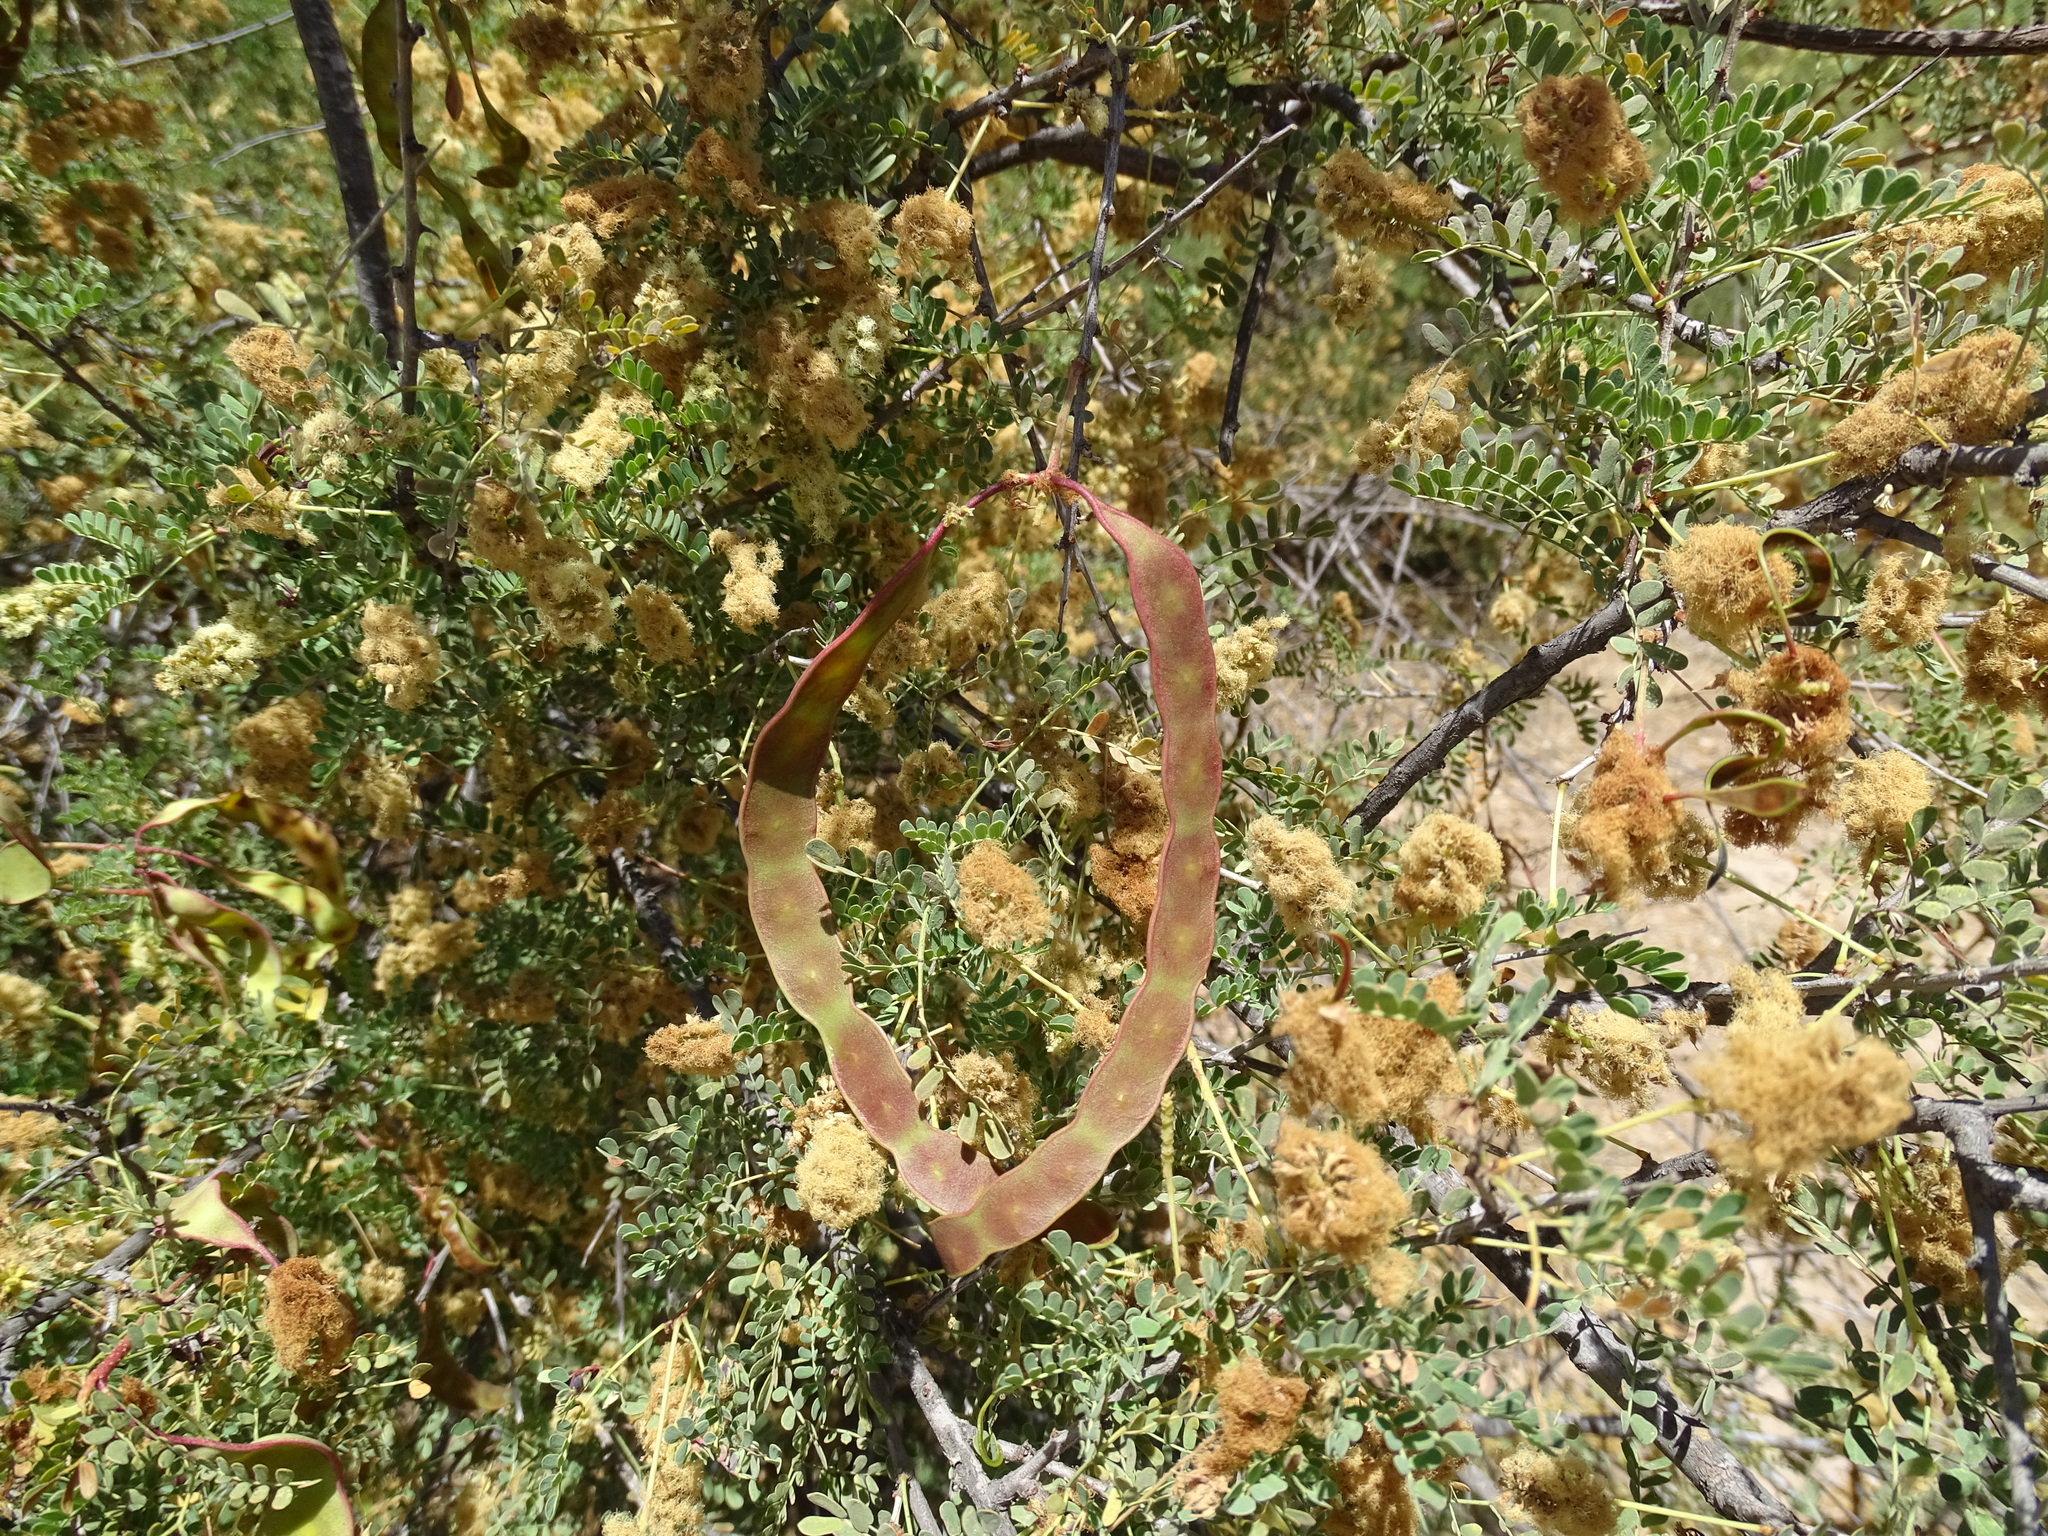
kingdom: Plantae
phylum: Tracheophyta
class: Magnoliopsida
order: Fabales
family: Fabaceae
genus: Senegalia
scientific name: Senegalia greggii
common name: Texas-mimosa
